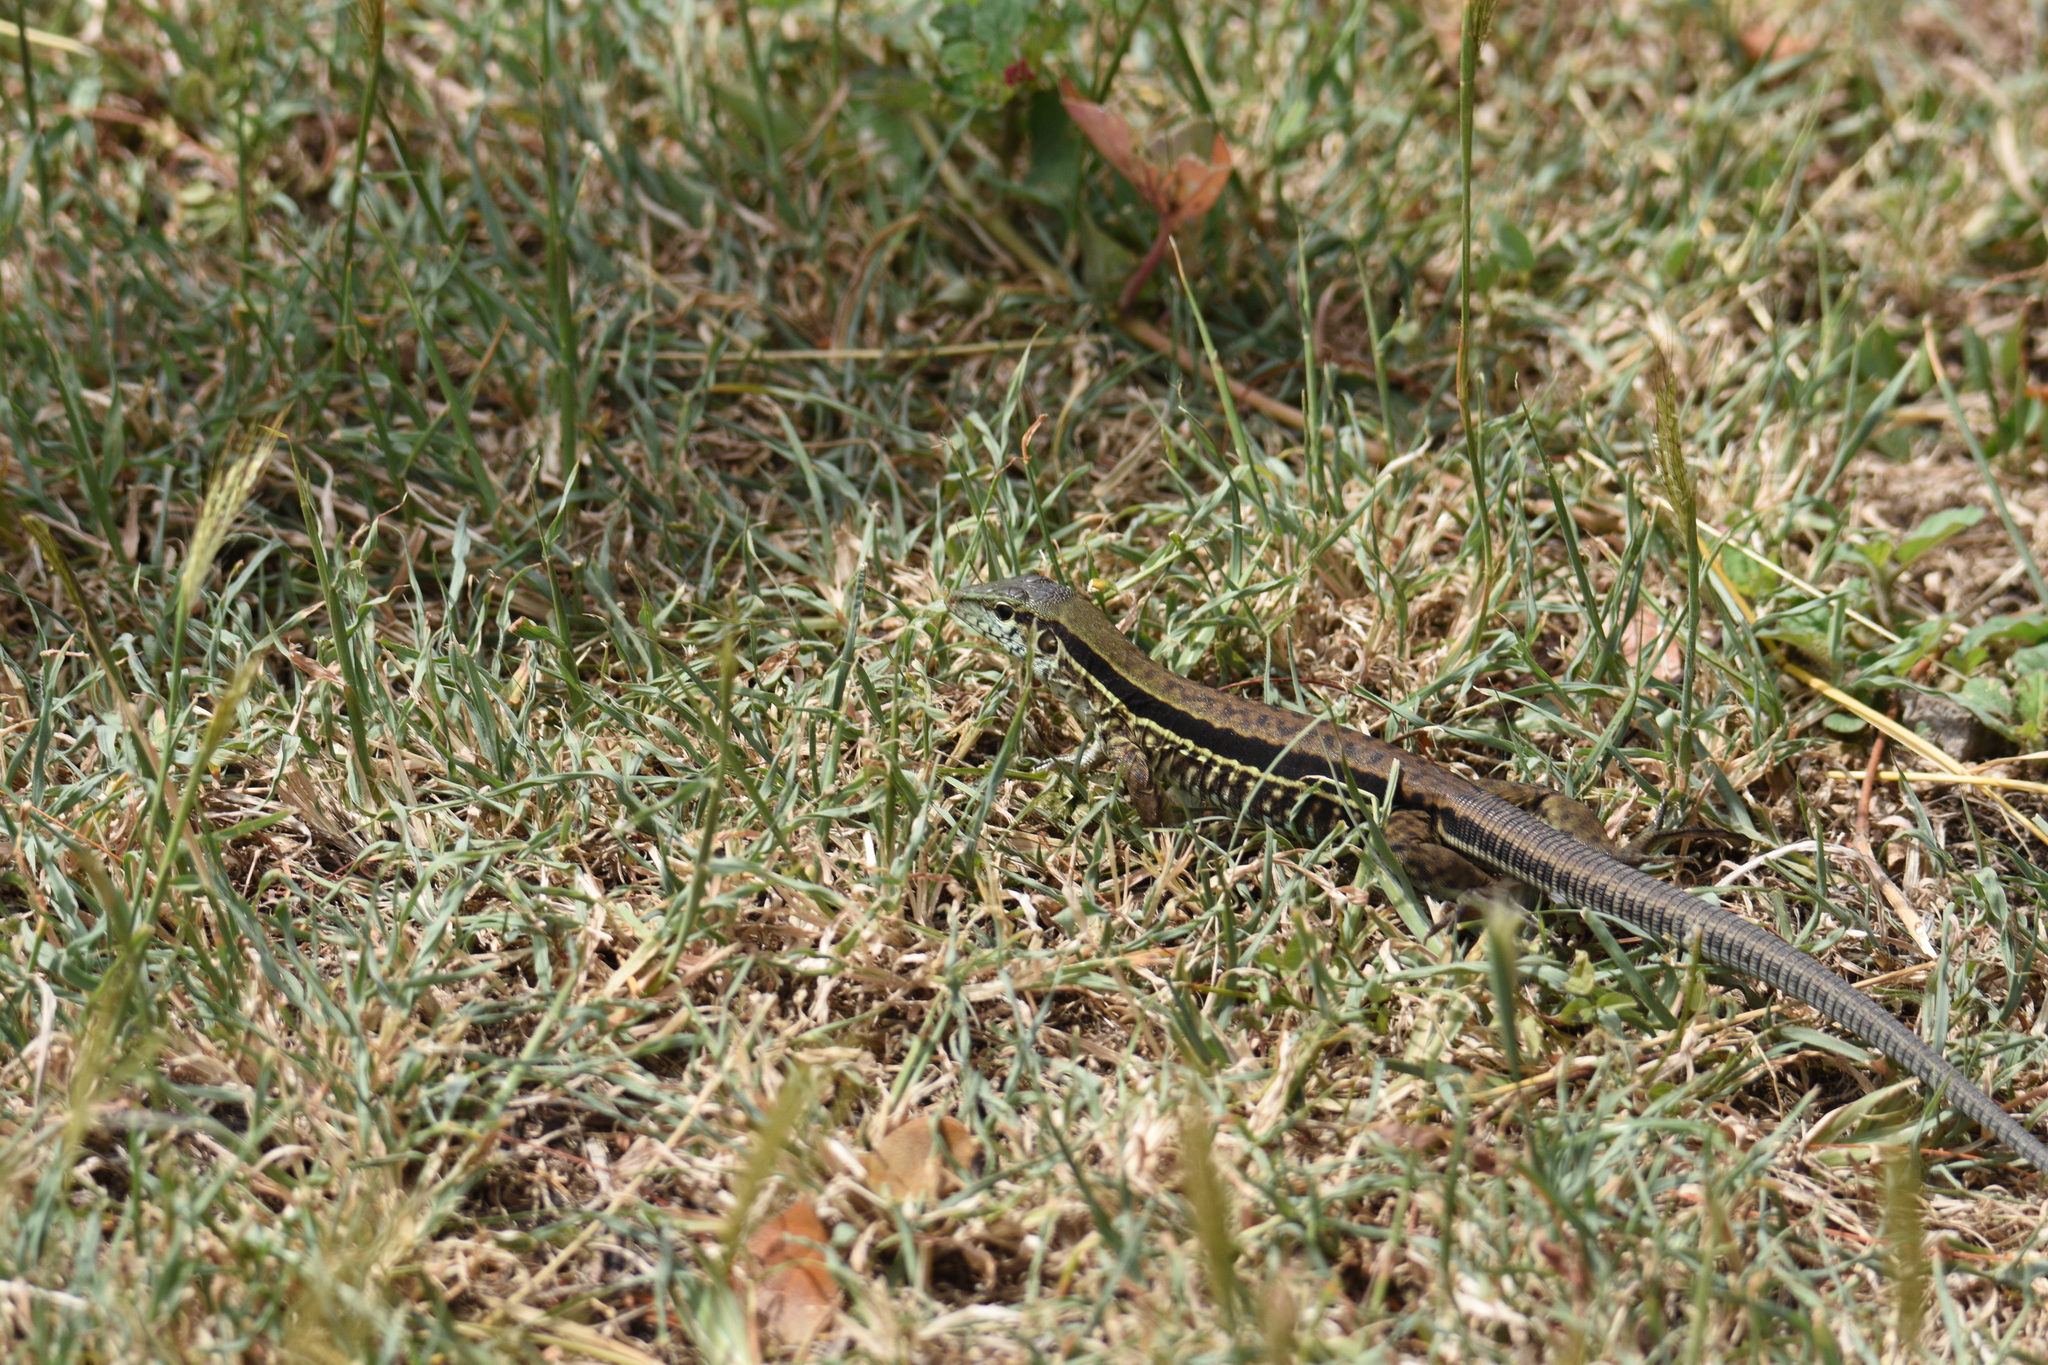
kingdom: Animalia
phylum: Chordata
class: Squamata
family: Teiidae
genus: Ameiva
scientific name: Ameiva tobagana
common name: Antillean ameiva
